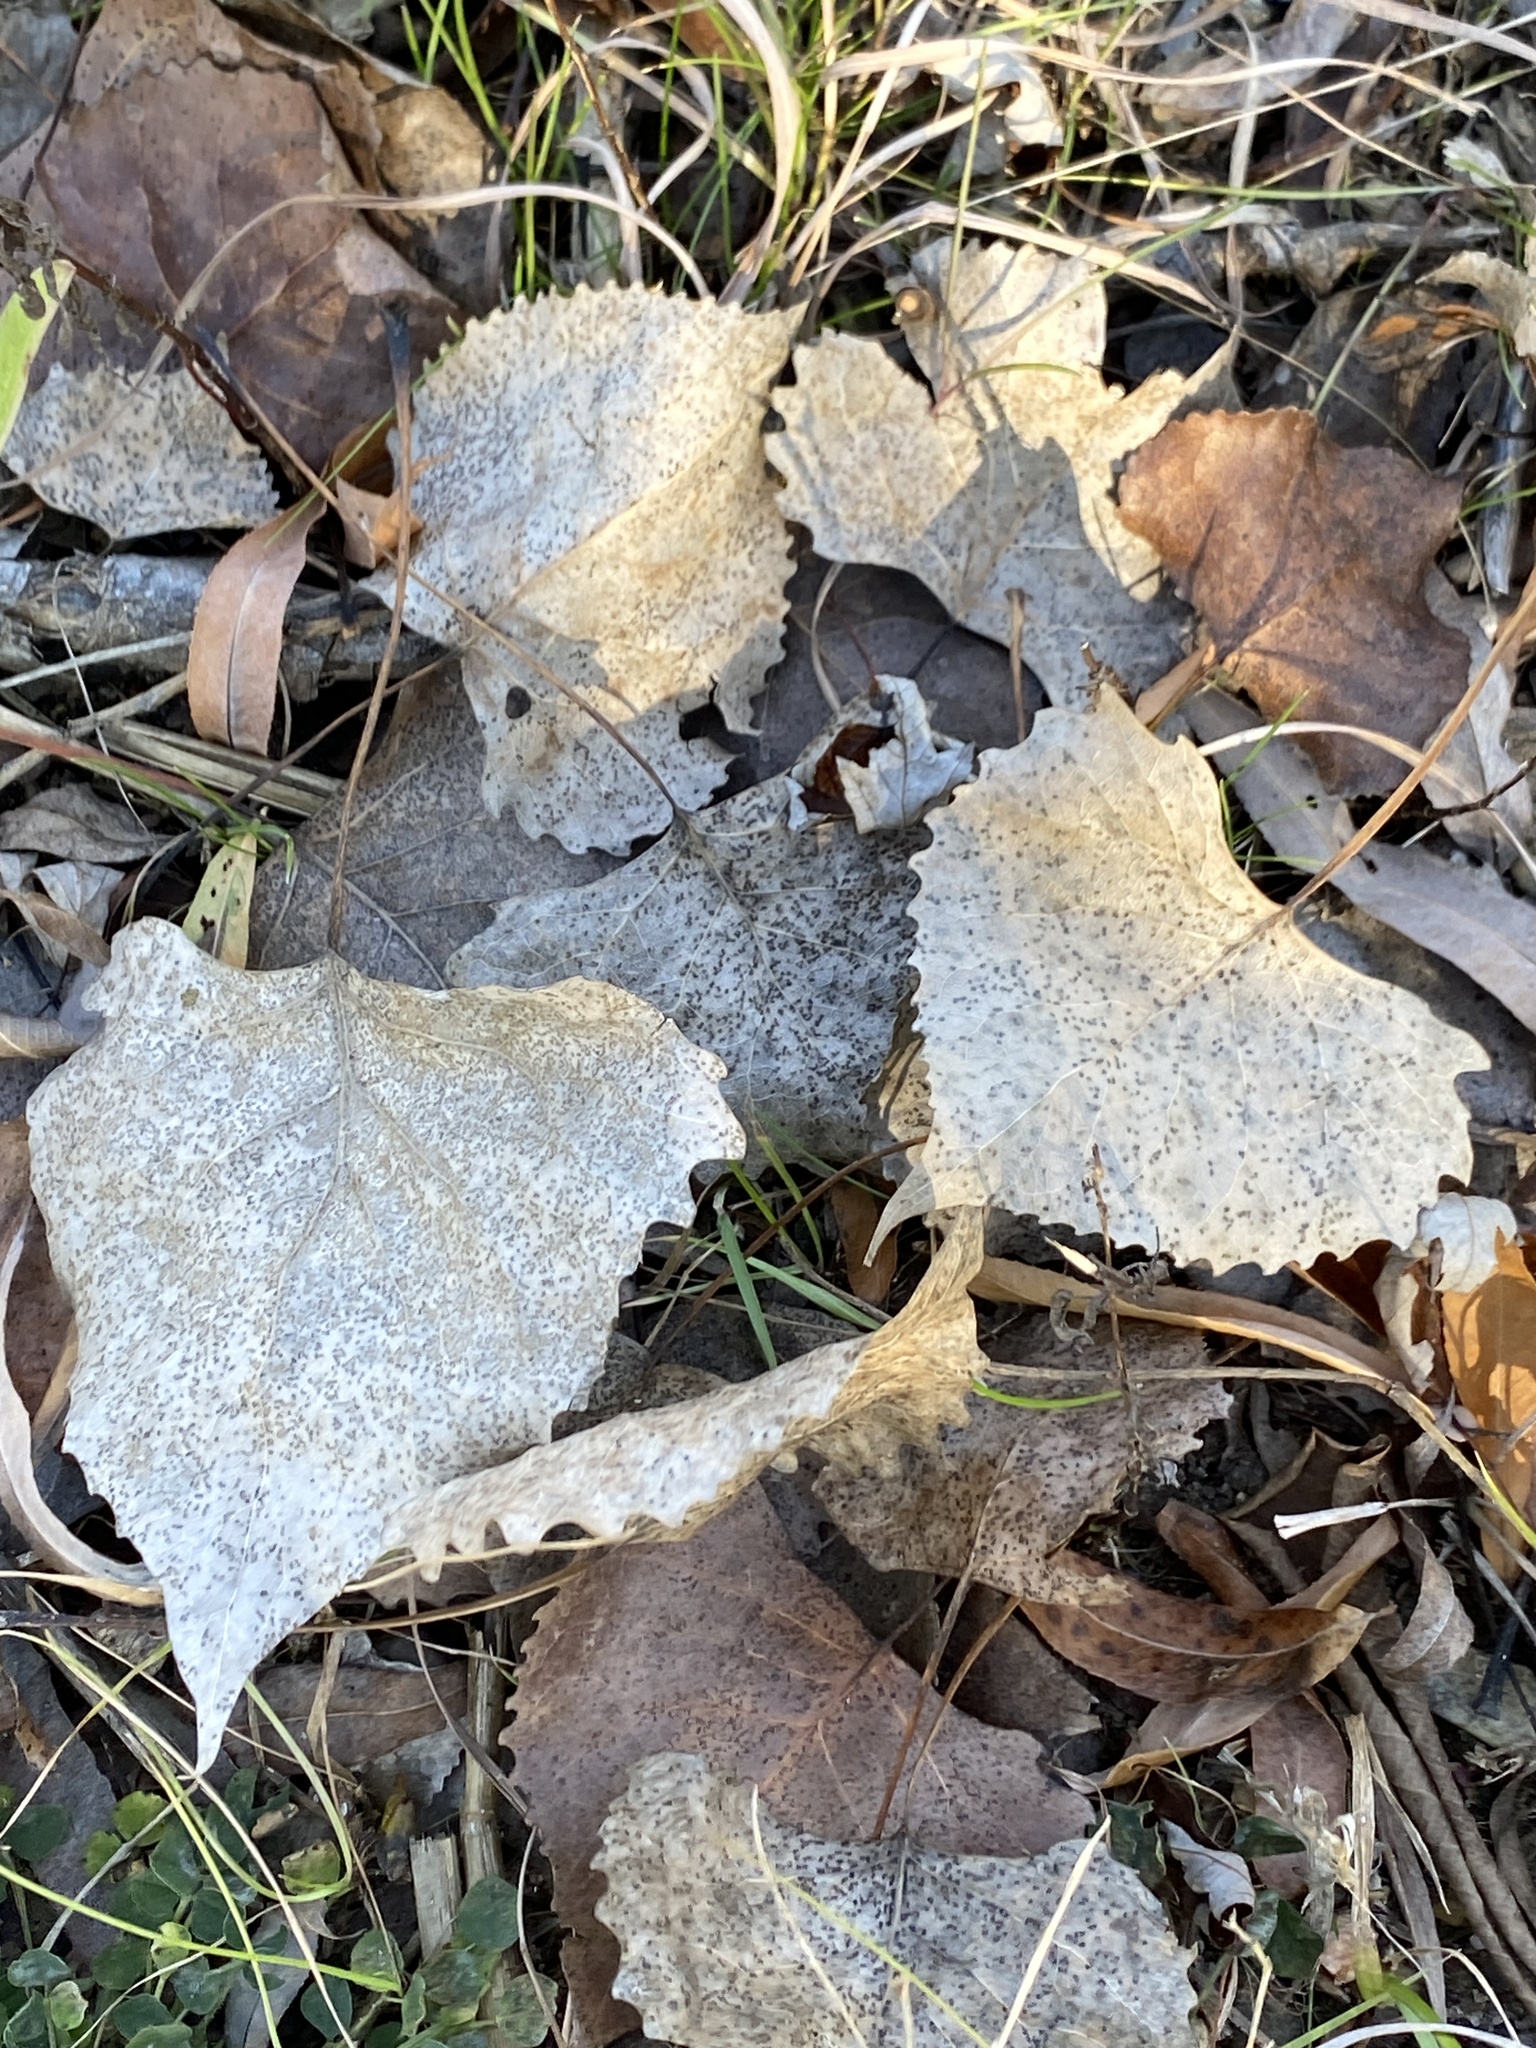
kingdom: Plantae
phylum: Tracheophyta
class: Magnoliopsida
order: Malpighiales
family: Salicaceae
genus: Populus
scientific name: Populus deltoides
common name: Eastern cottonwood
